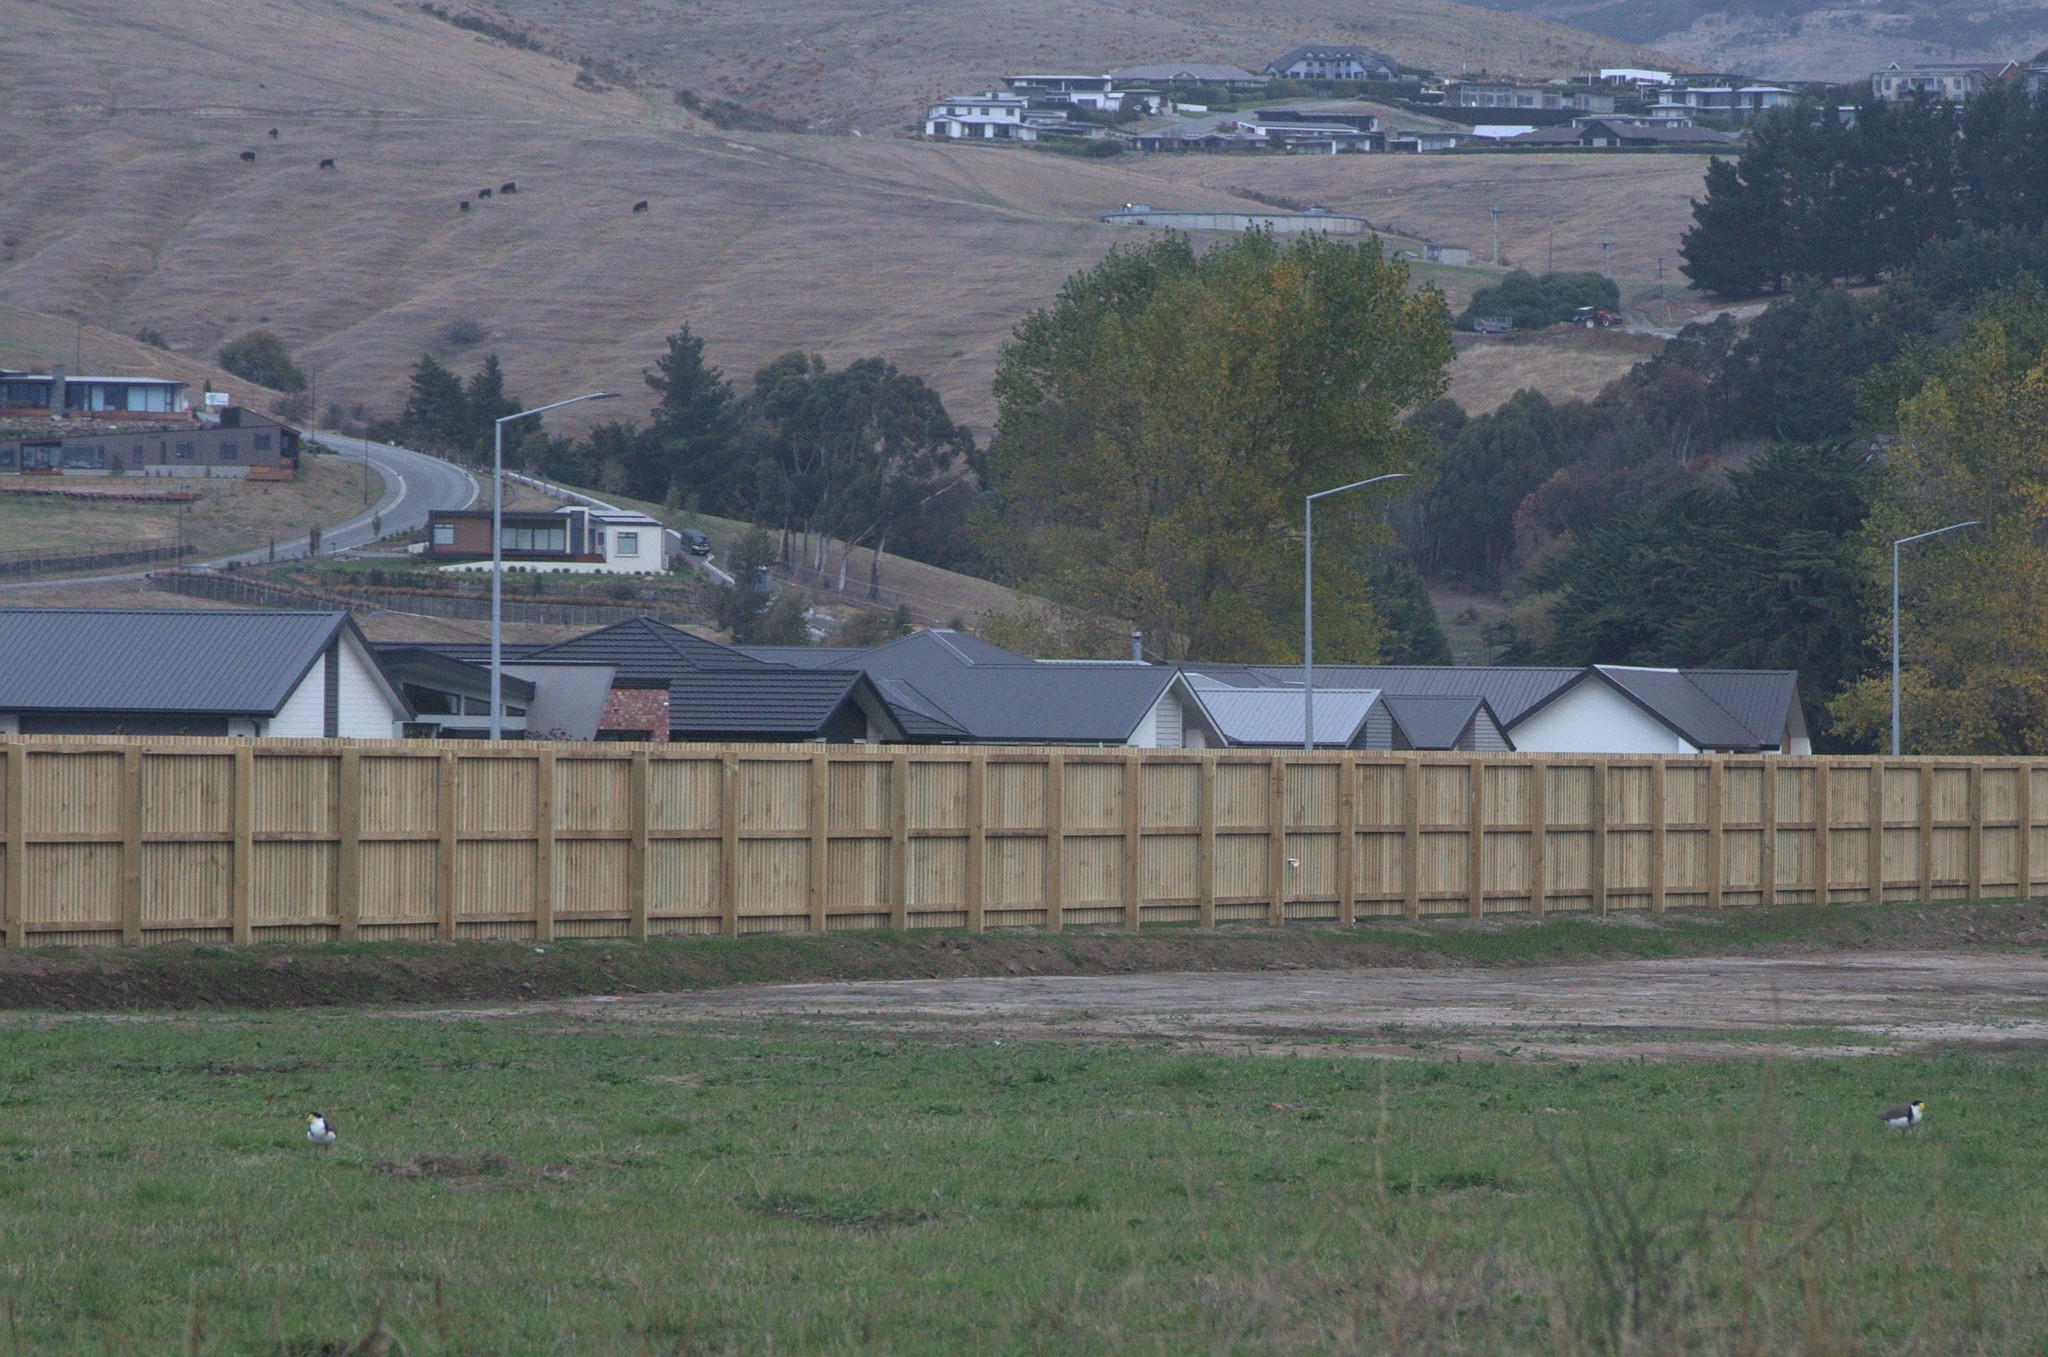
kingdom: Animalia
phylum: Chordata
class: Aves
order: Charadriiformes
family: Charadriidae
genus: Vanellus
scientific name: Vanellus miles
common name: Masked lapwing
